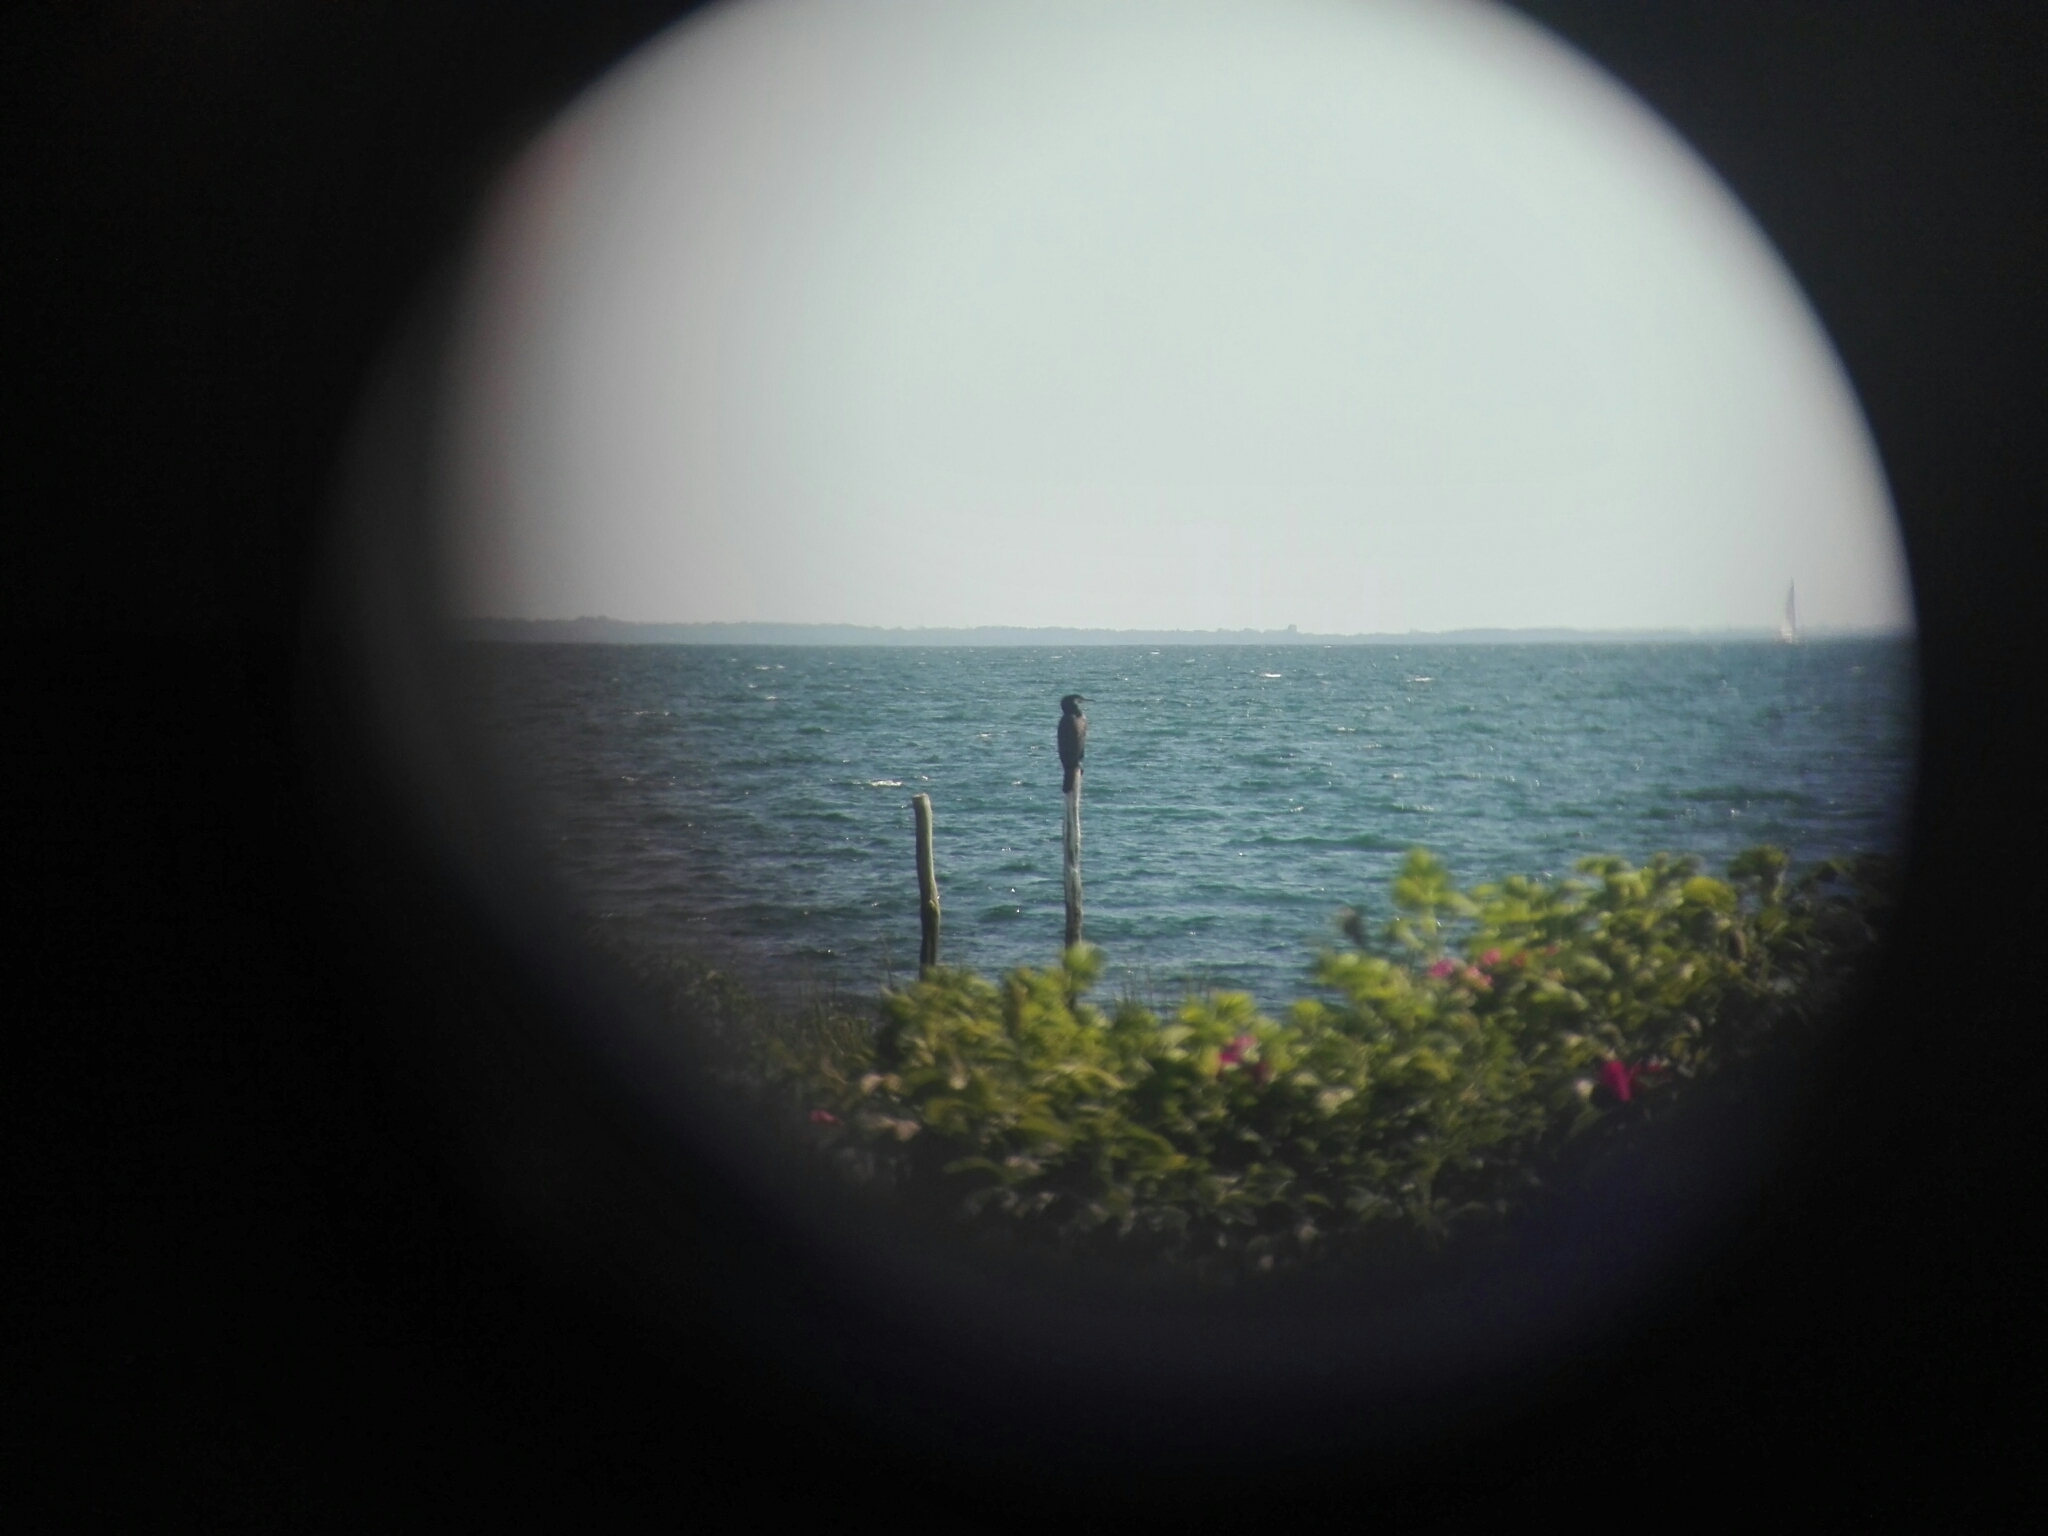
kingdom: Animalia
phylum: Chordata
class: Aves
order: Suliformes
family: Phalacrocoracidae
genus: Phalacrocorax
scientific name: Phalacrocorax carbo
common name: Great cormorant
